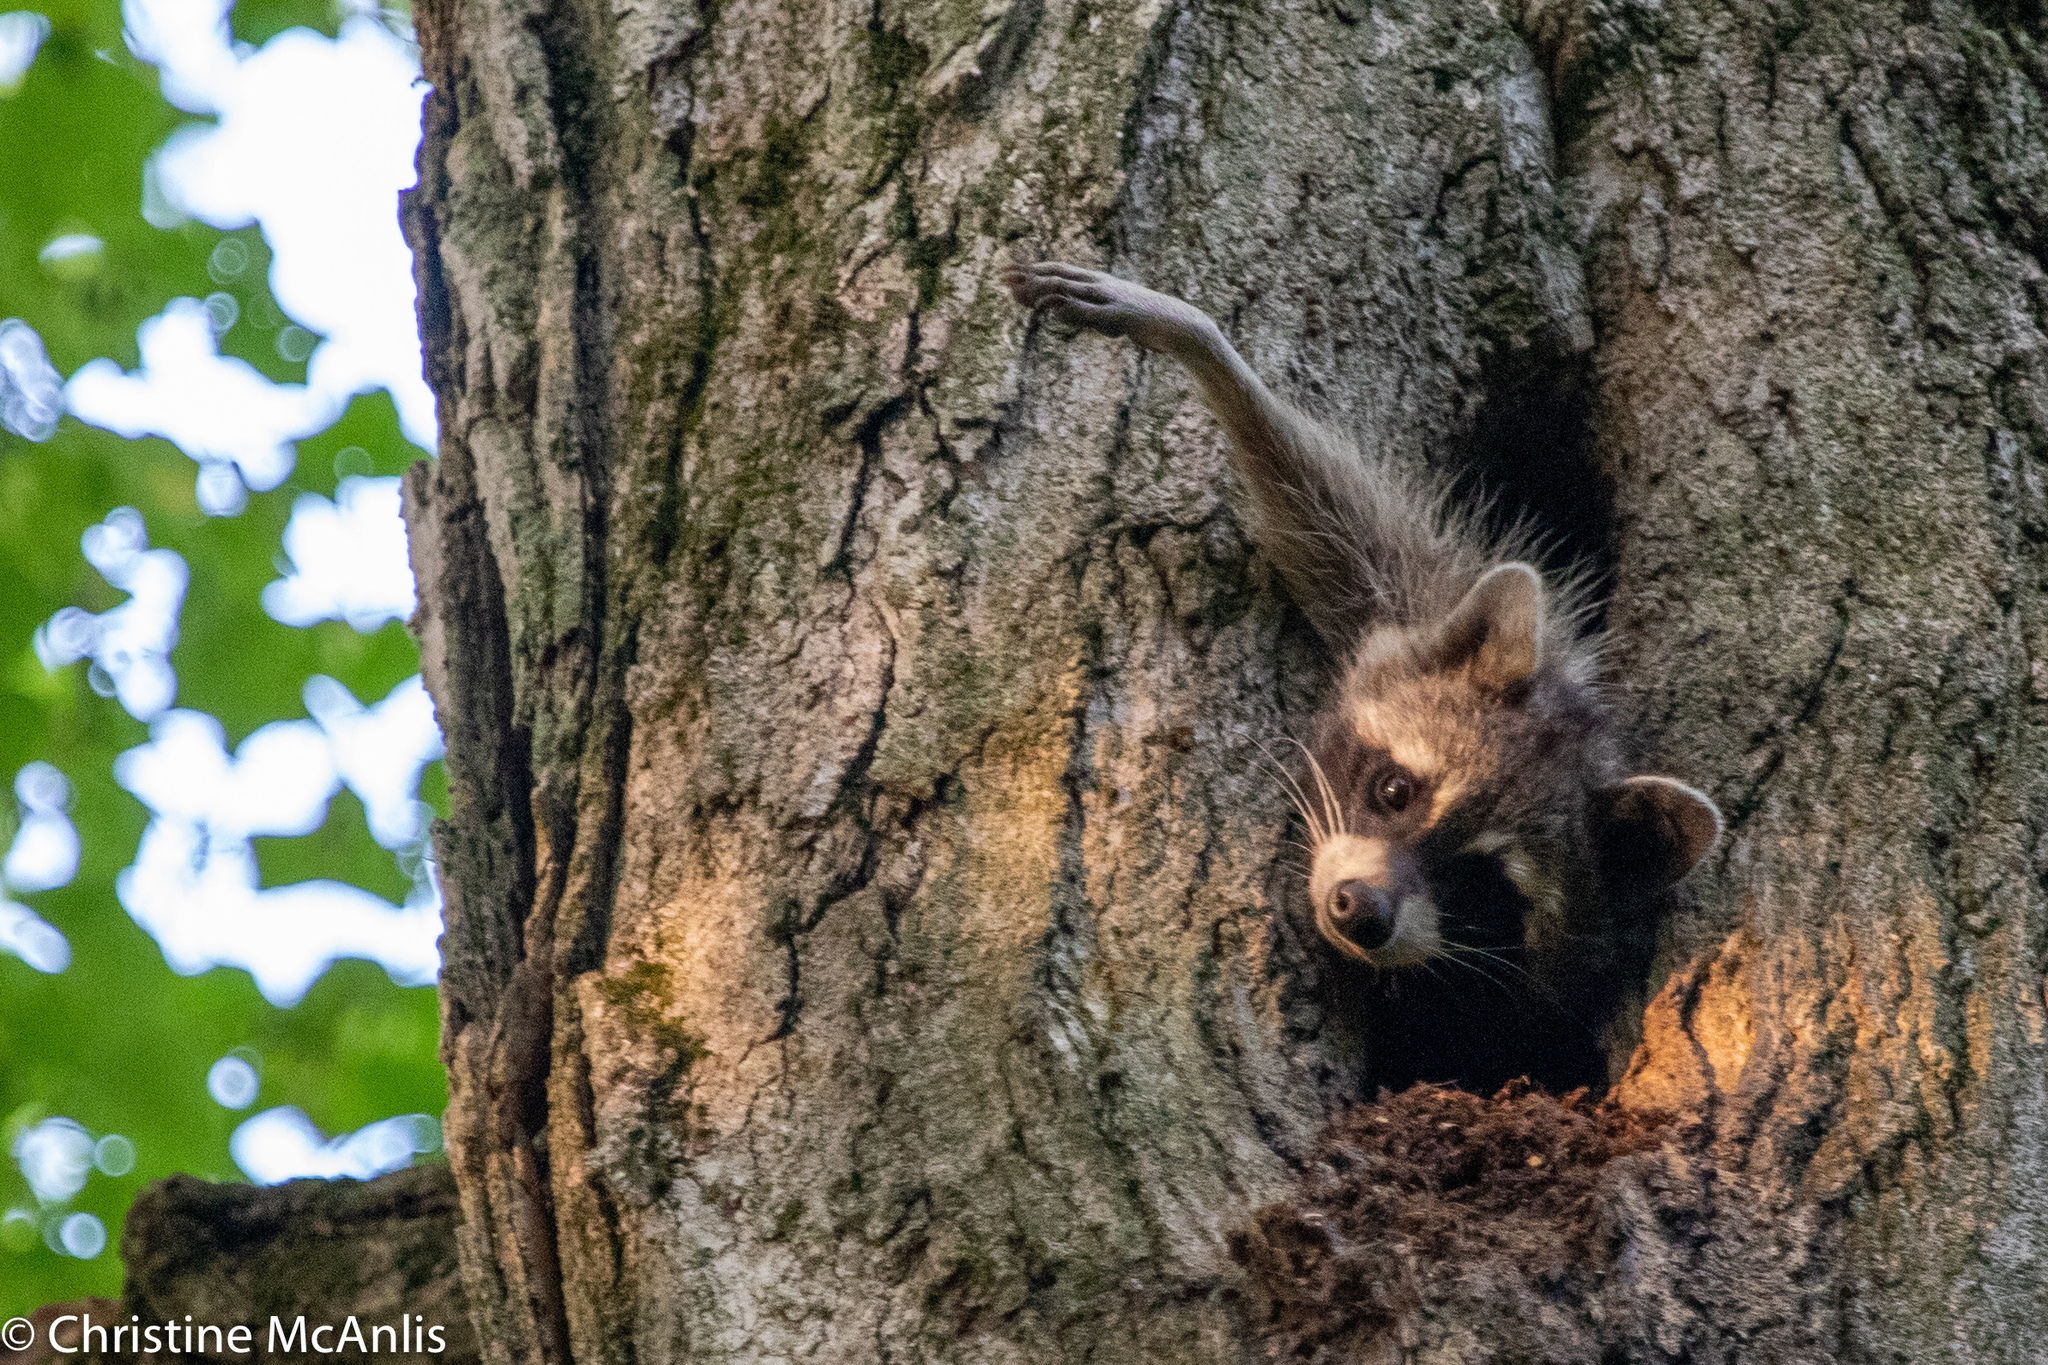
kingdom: Animalia
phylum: Chordata
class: Mammalia
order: Carnivora
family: Procyonidae
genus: Procyon
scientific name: Procyon lotor
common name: Raccoon
